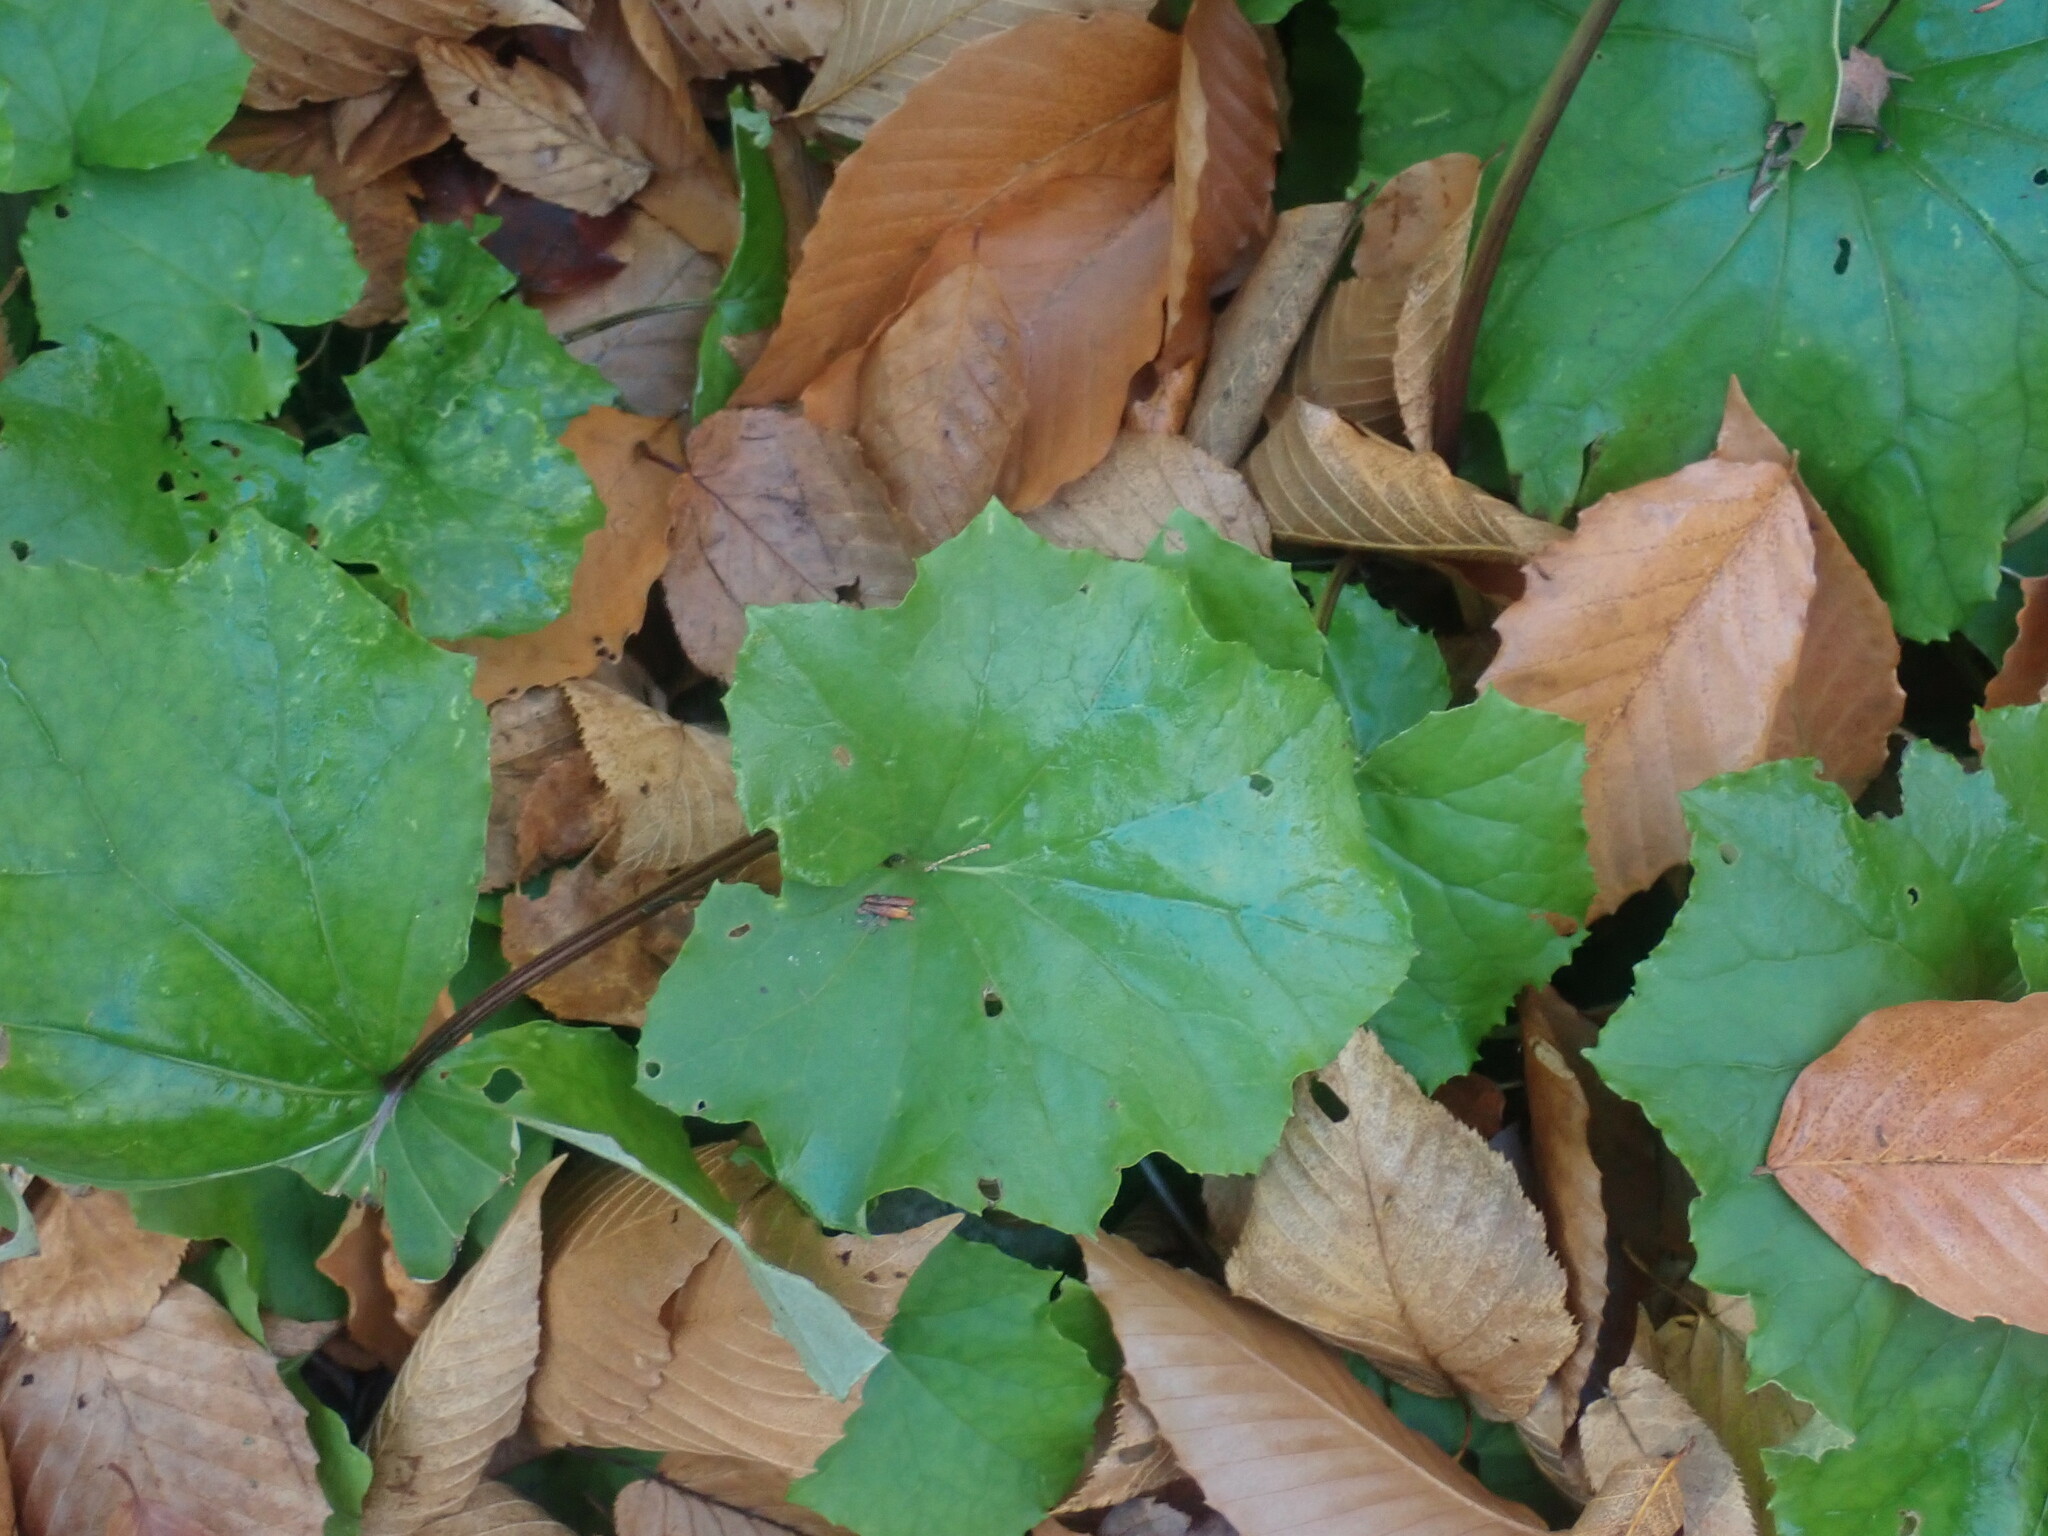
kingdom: Plantae
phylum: Tracheophyta
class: Magnoliopsida
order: Asterales
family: Asteraceae
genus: Tussilago
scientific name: Tussilago farfara
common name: Coltsfoot
